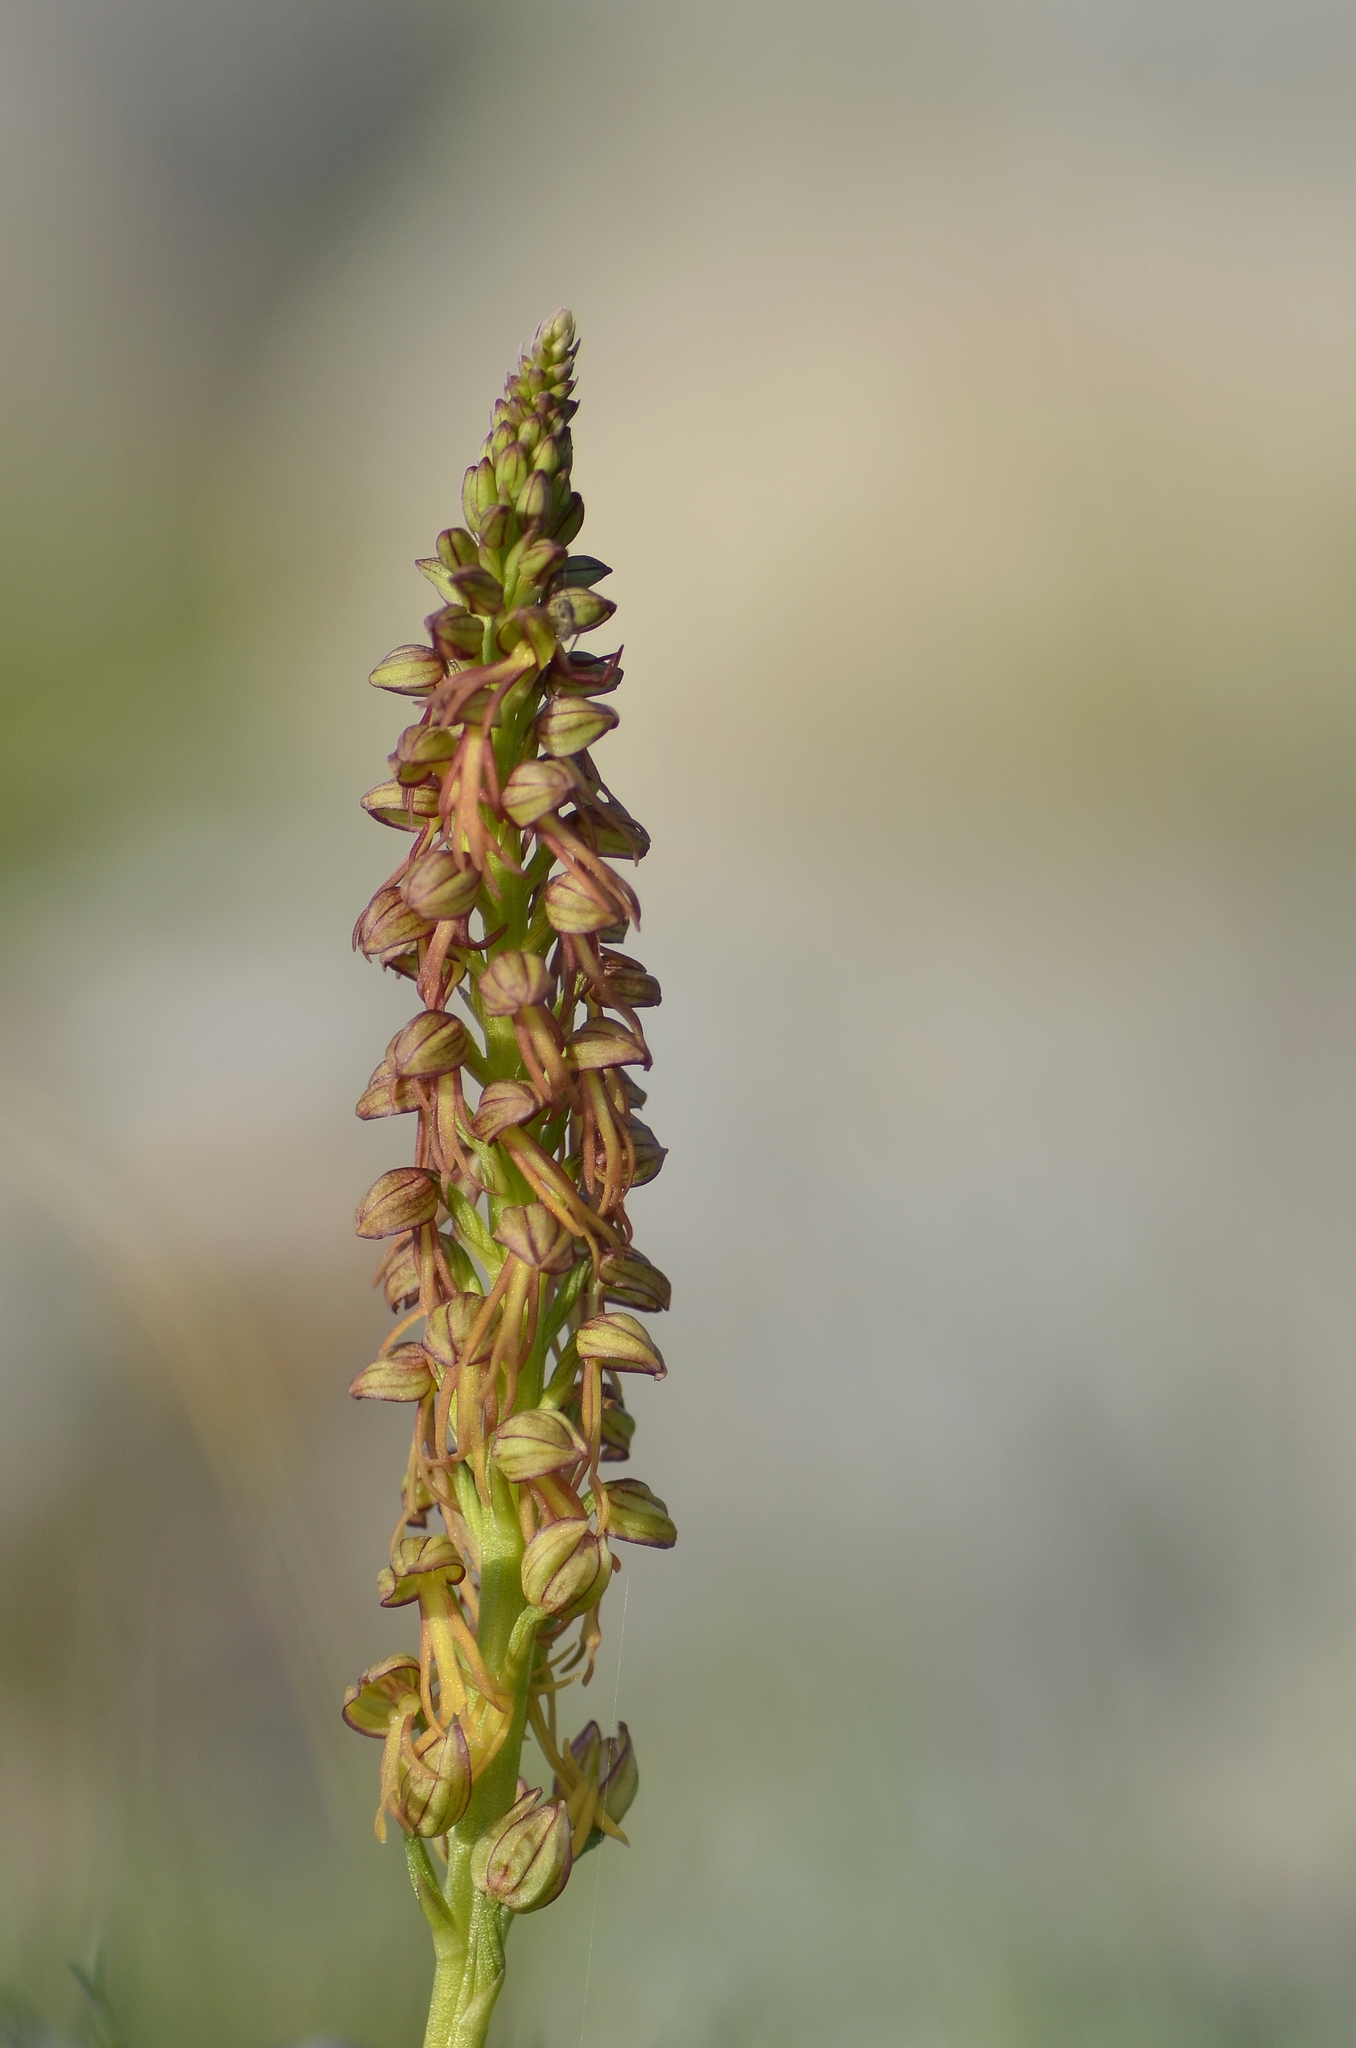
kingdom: Plantae
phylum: Tracheophyta
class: Liliopsida
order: Asparagales
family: Orchidaceae
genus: Orchis
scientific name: Orchis anthropophora
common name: Man orchid
